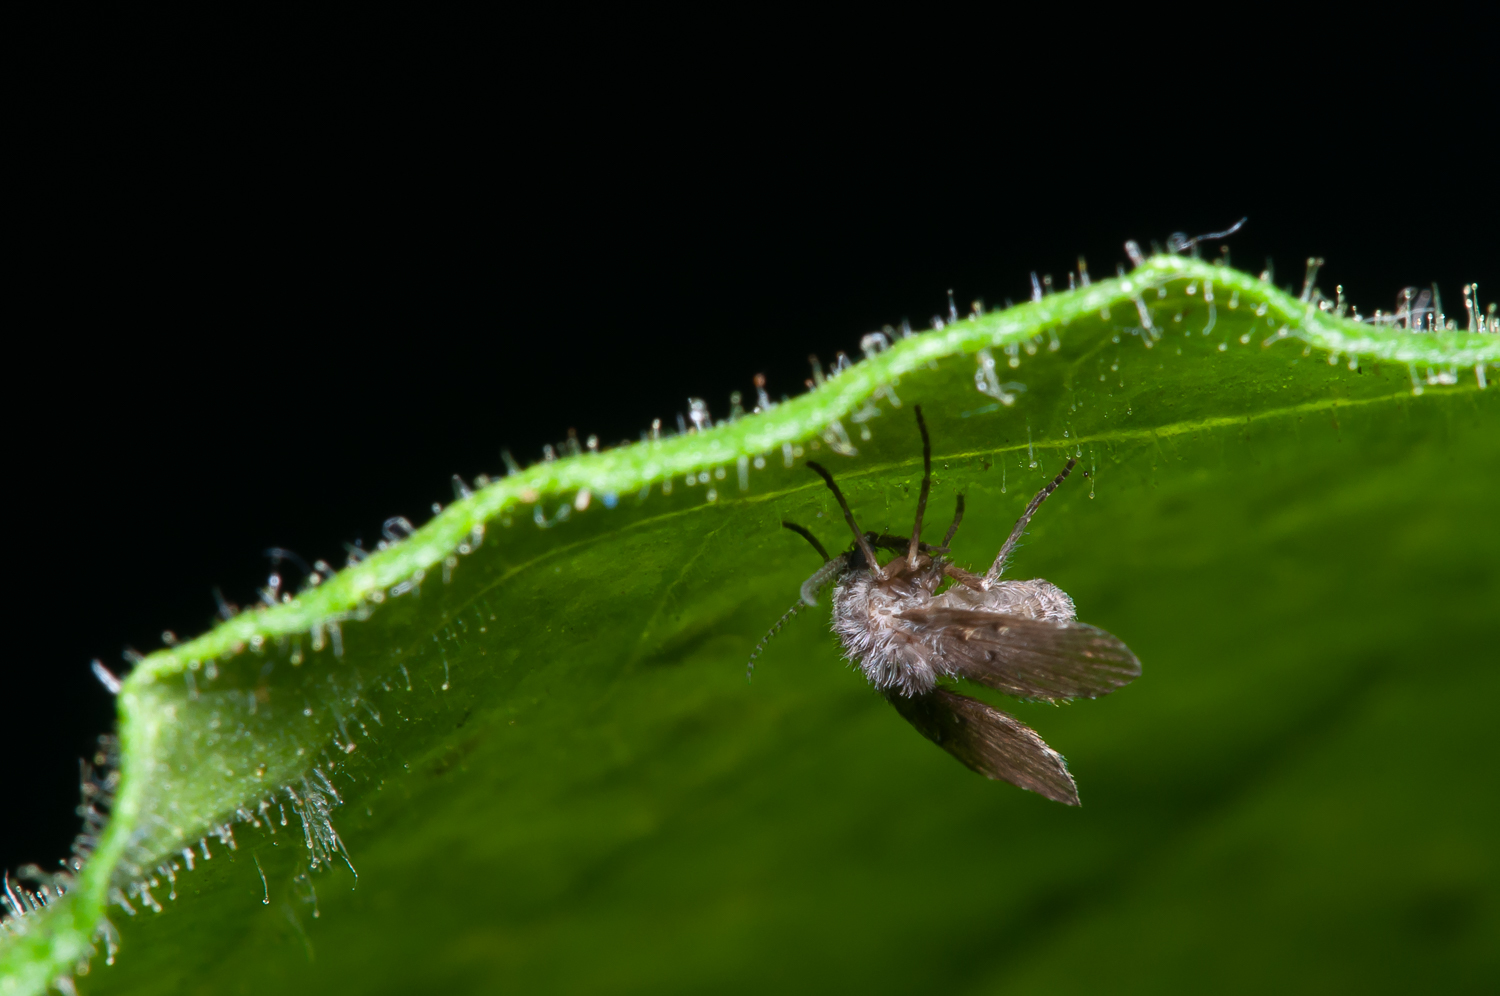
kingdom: Animalia
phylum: Arthropoda
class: Insecta
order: Diptera
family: Psychodidae
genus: Clogmia
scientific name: Clogmia albipunctatus
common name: White-spotted moth fly
